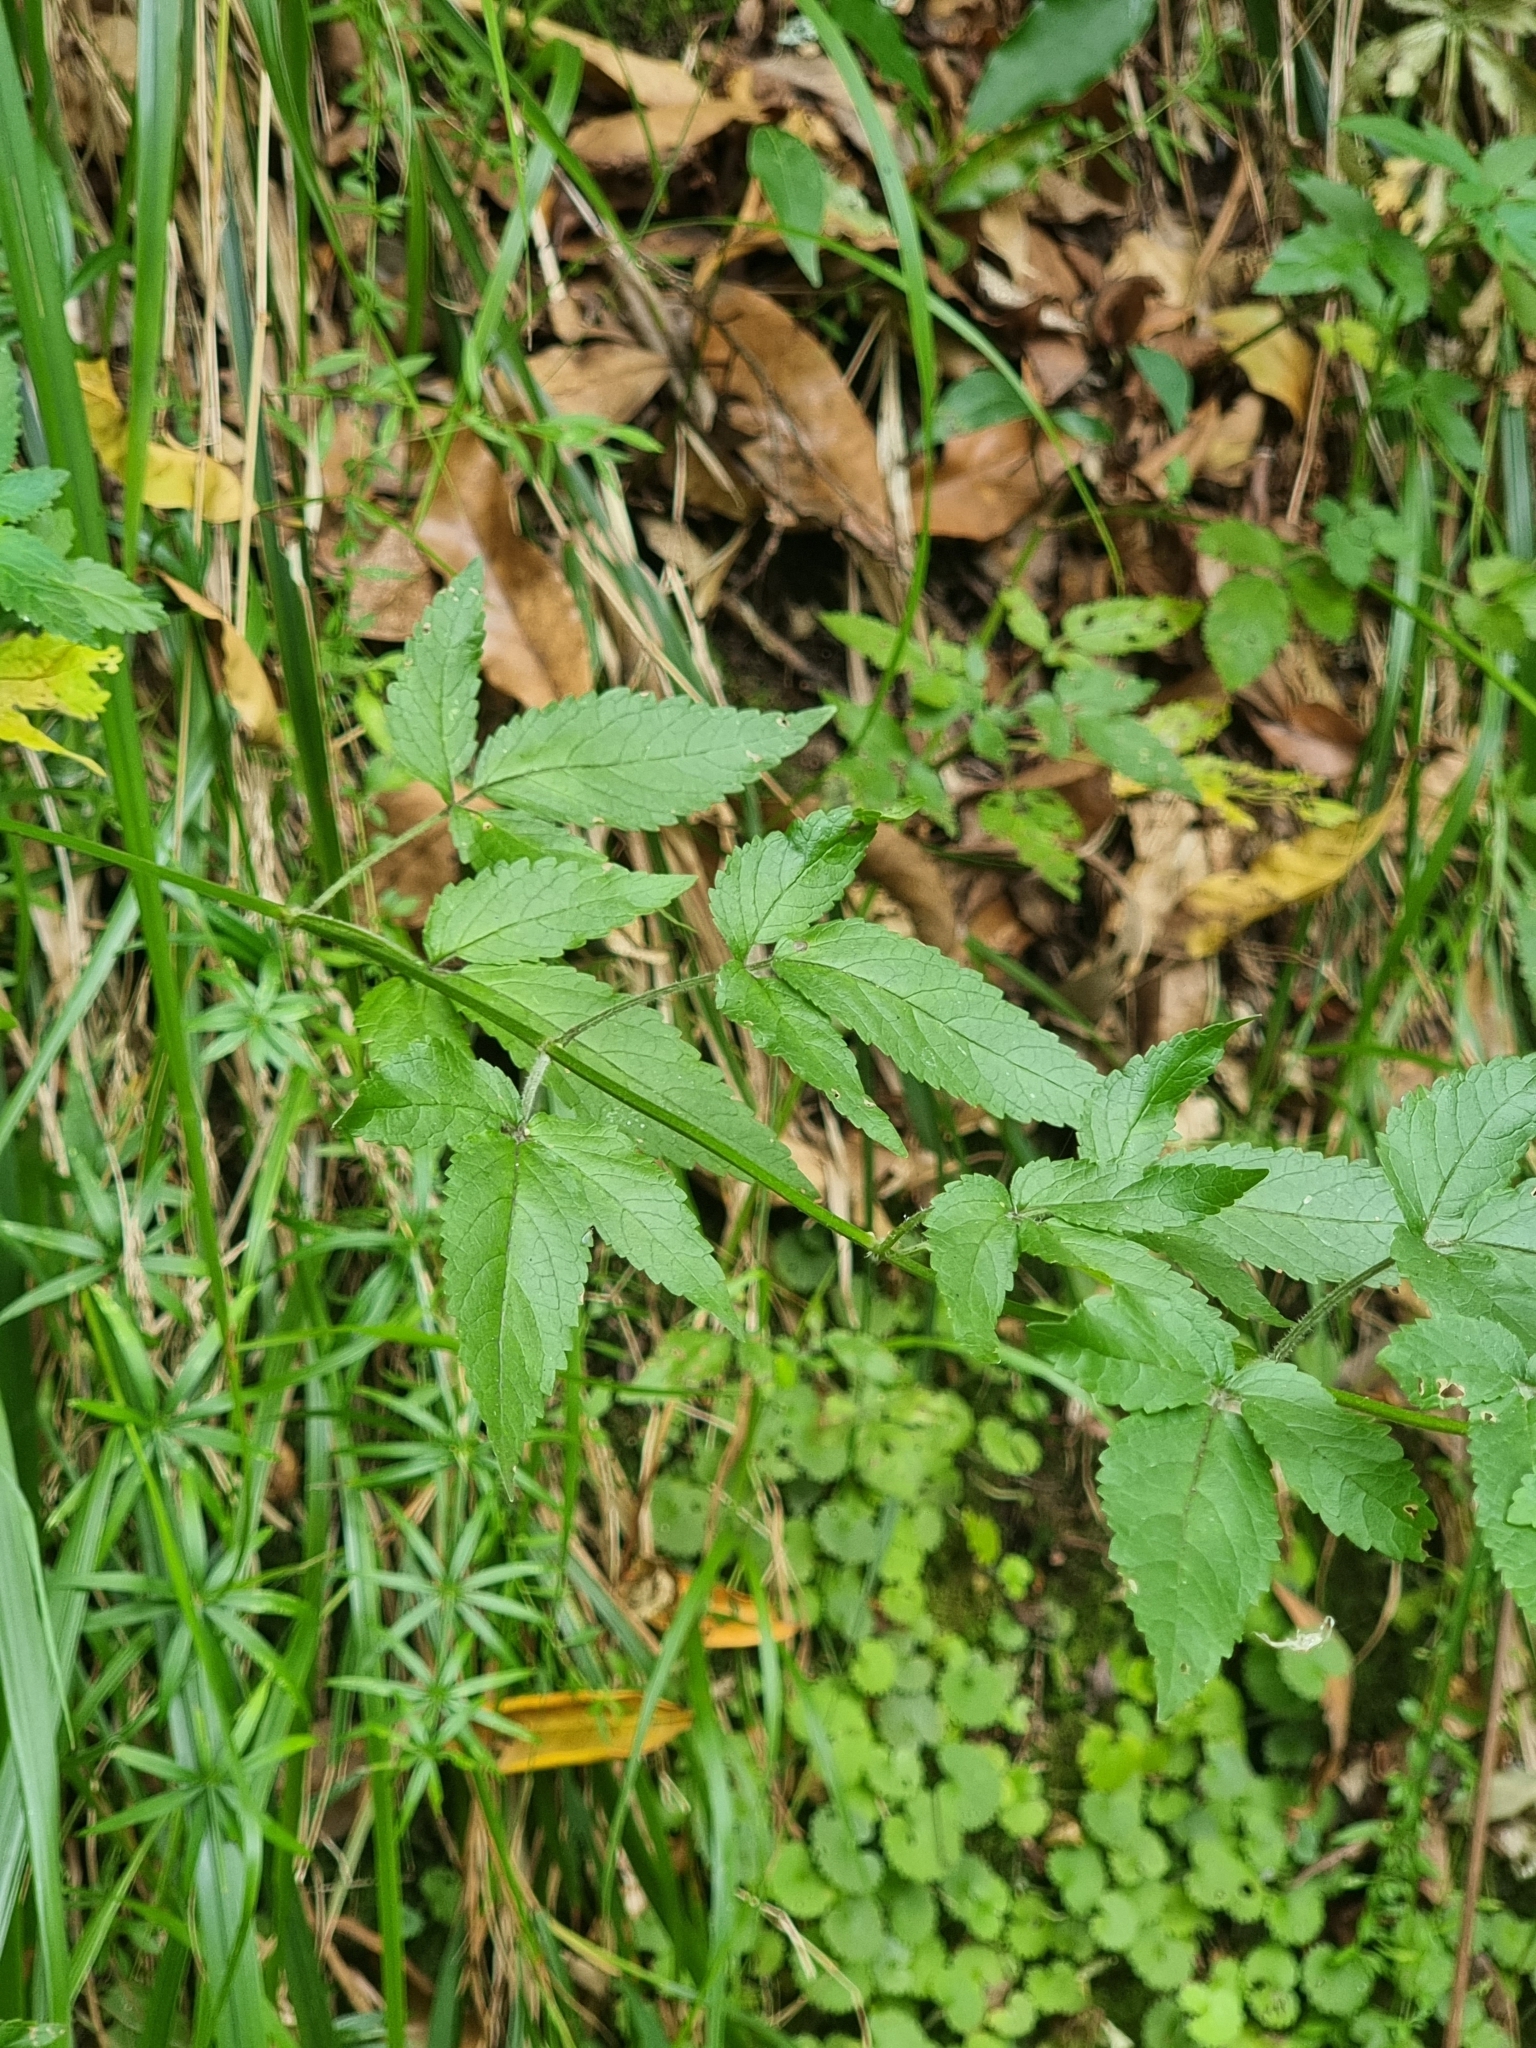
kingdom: Plantae
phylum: Tracheophyta
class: Magnoliopsida
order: Lamiales
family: Lamiaceae
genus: Cedronella
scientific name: Cedronella canariensis
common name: Canary islands balm
